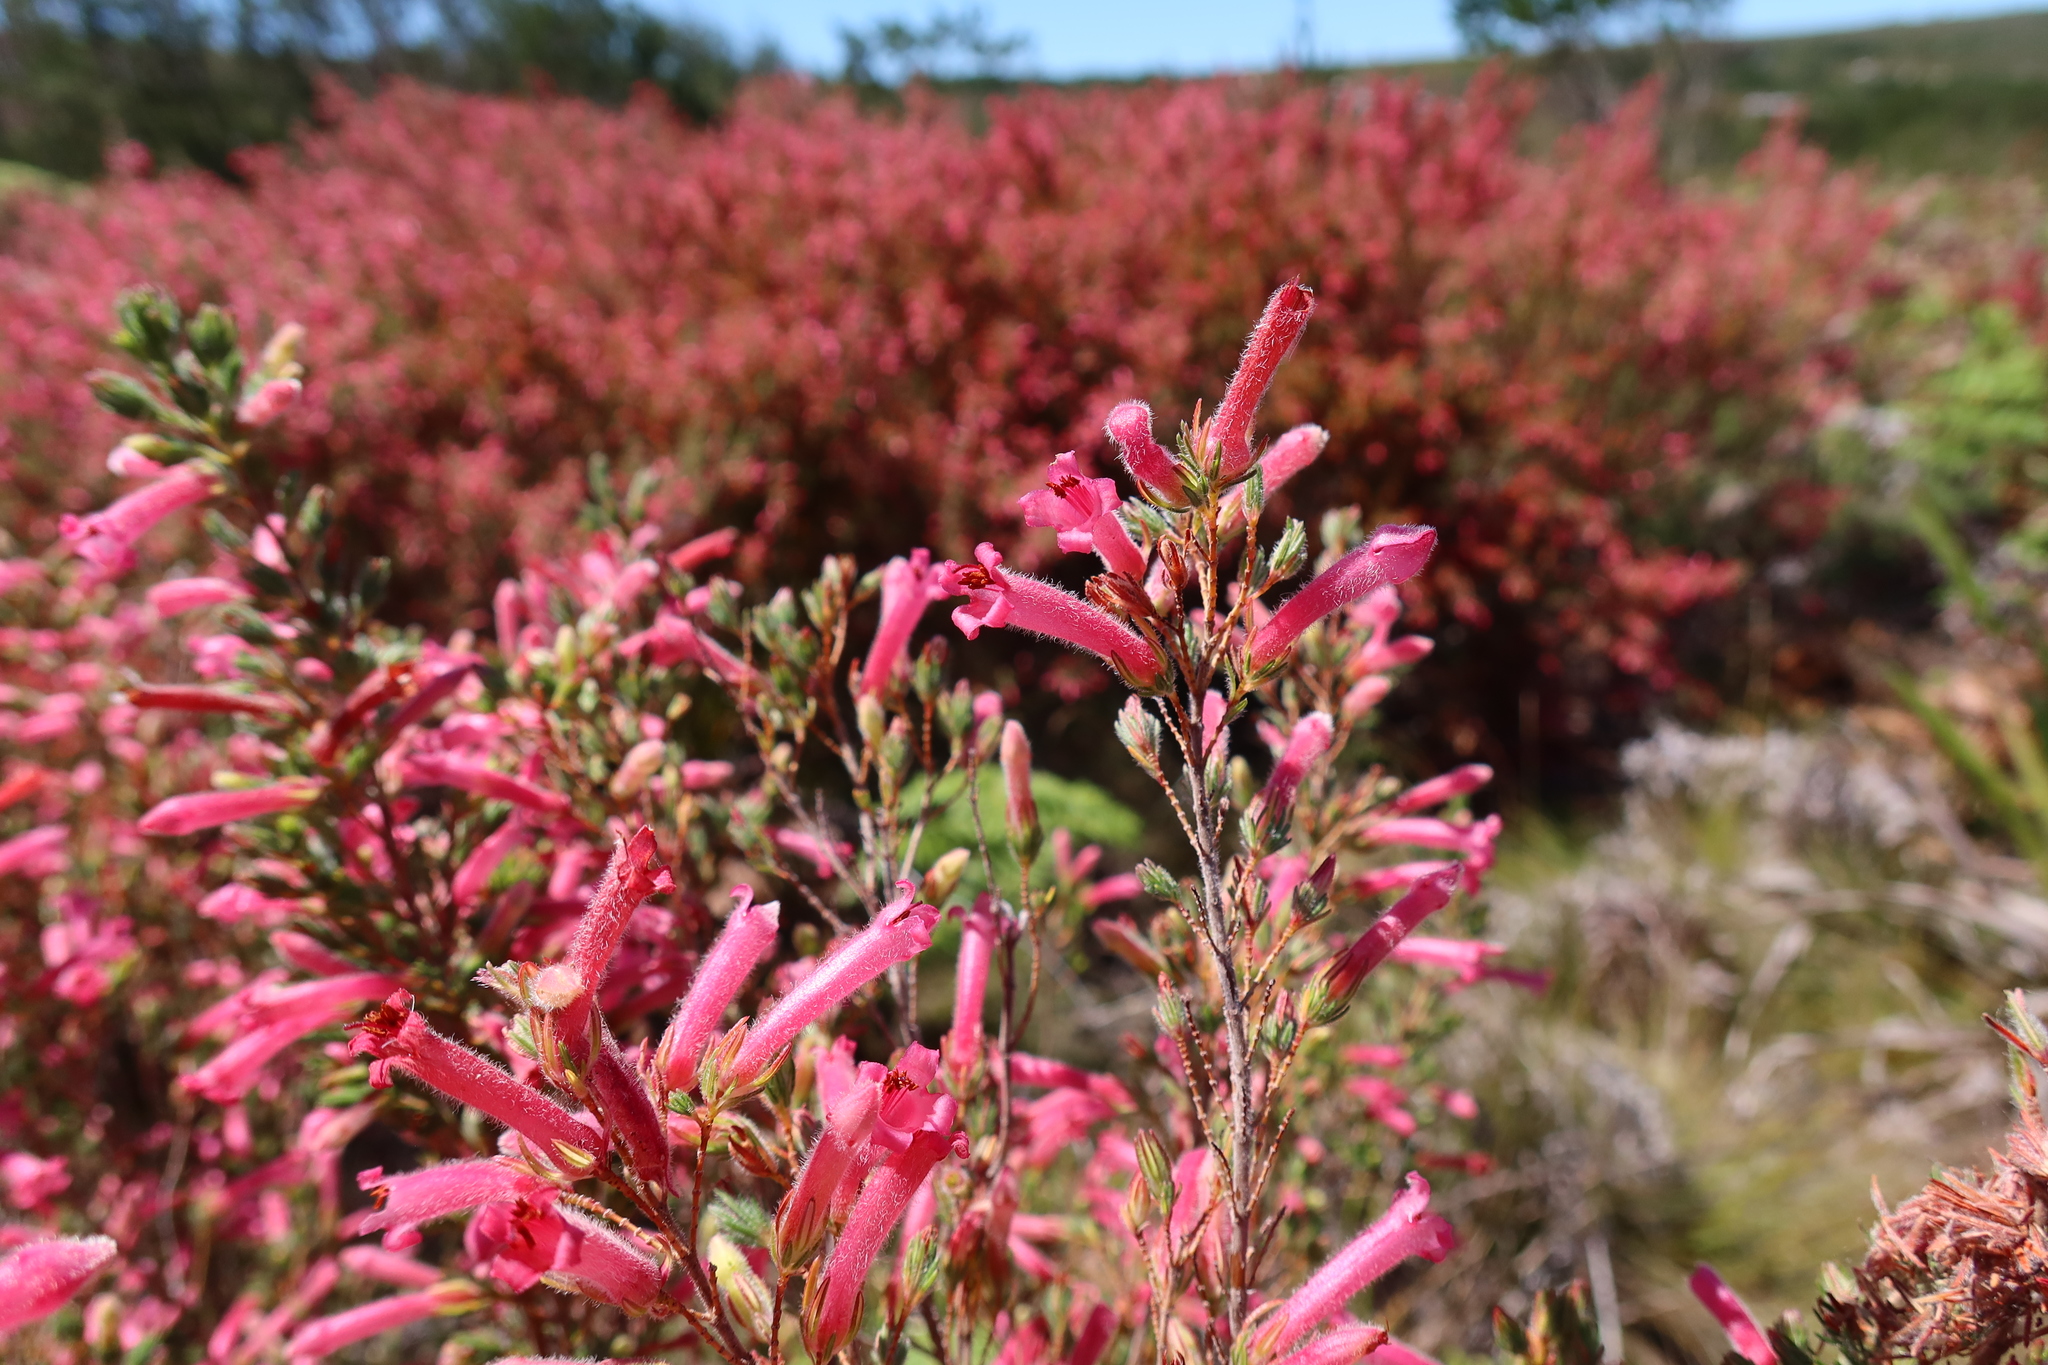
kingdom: Plantae
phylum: Tracheophyta
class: Magnoliopsida
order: Ericales
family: Ericaceae
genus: Erica
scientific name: Erica curviflora
